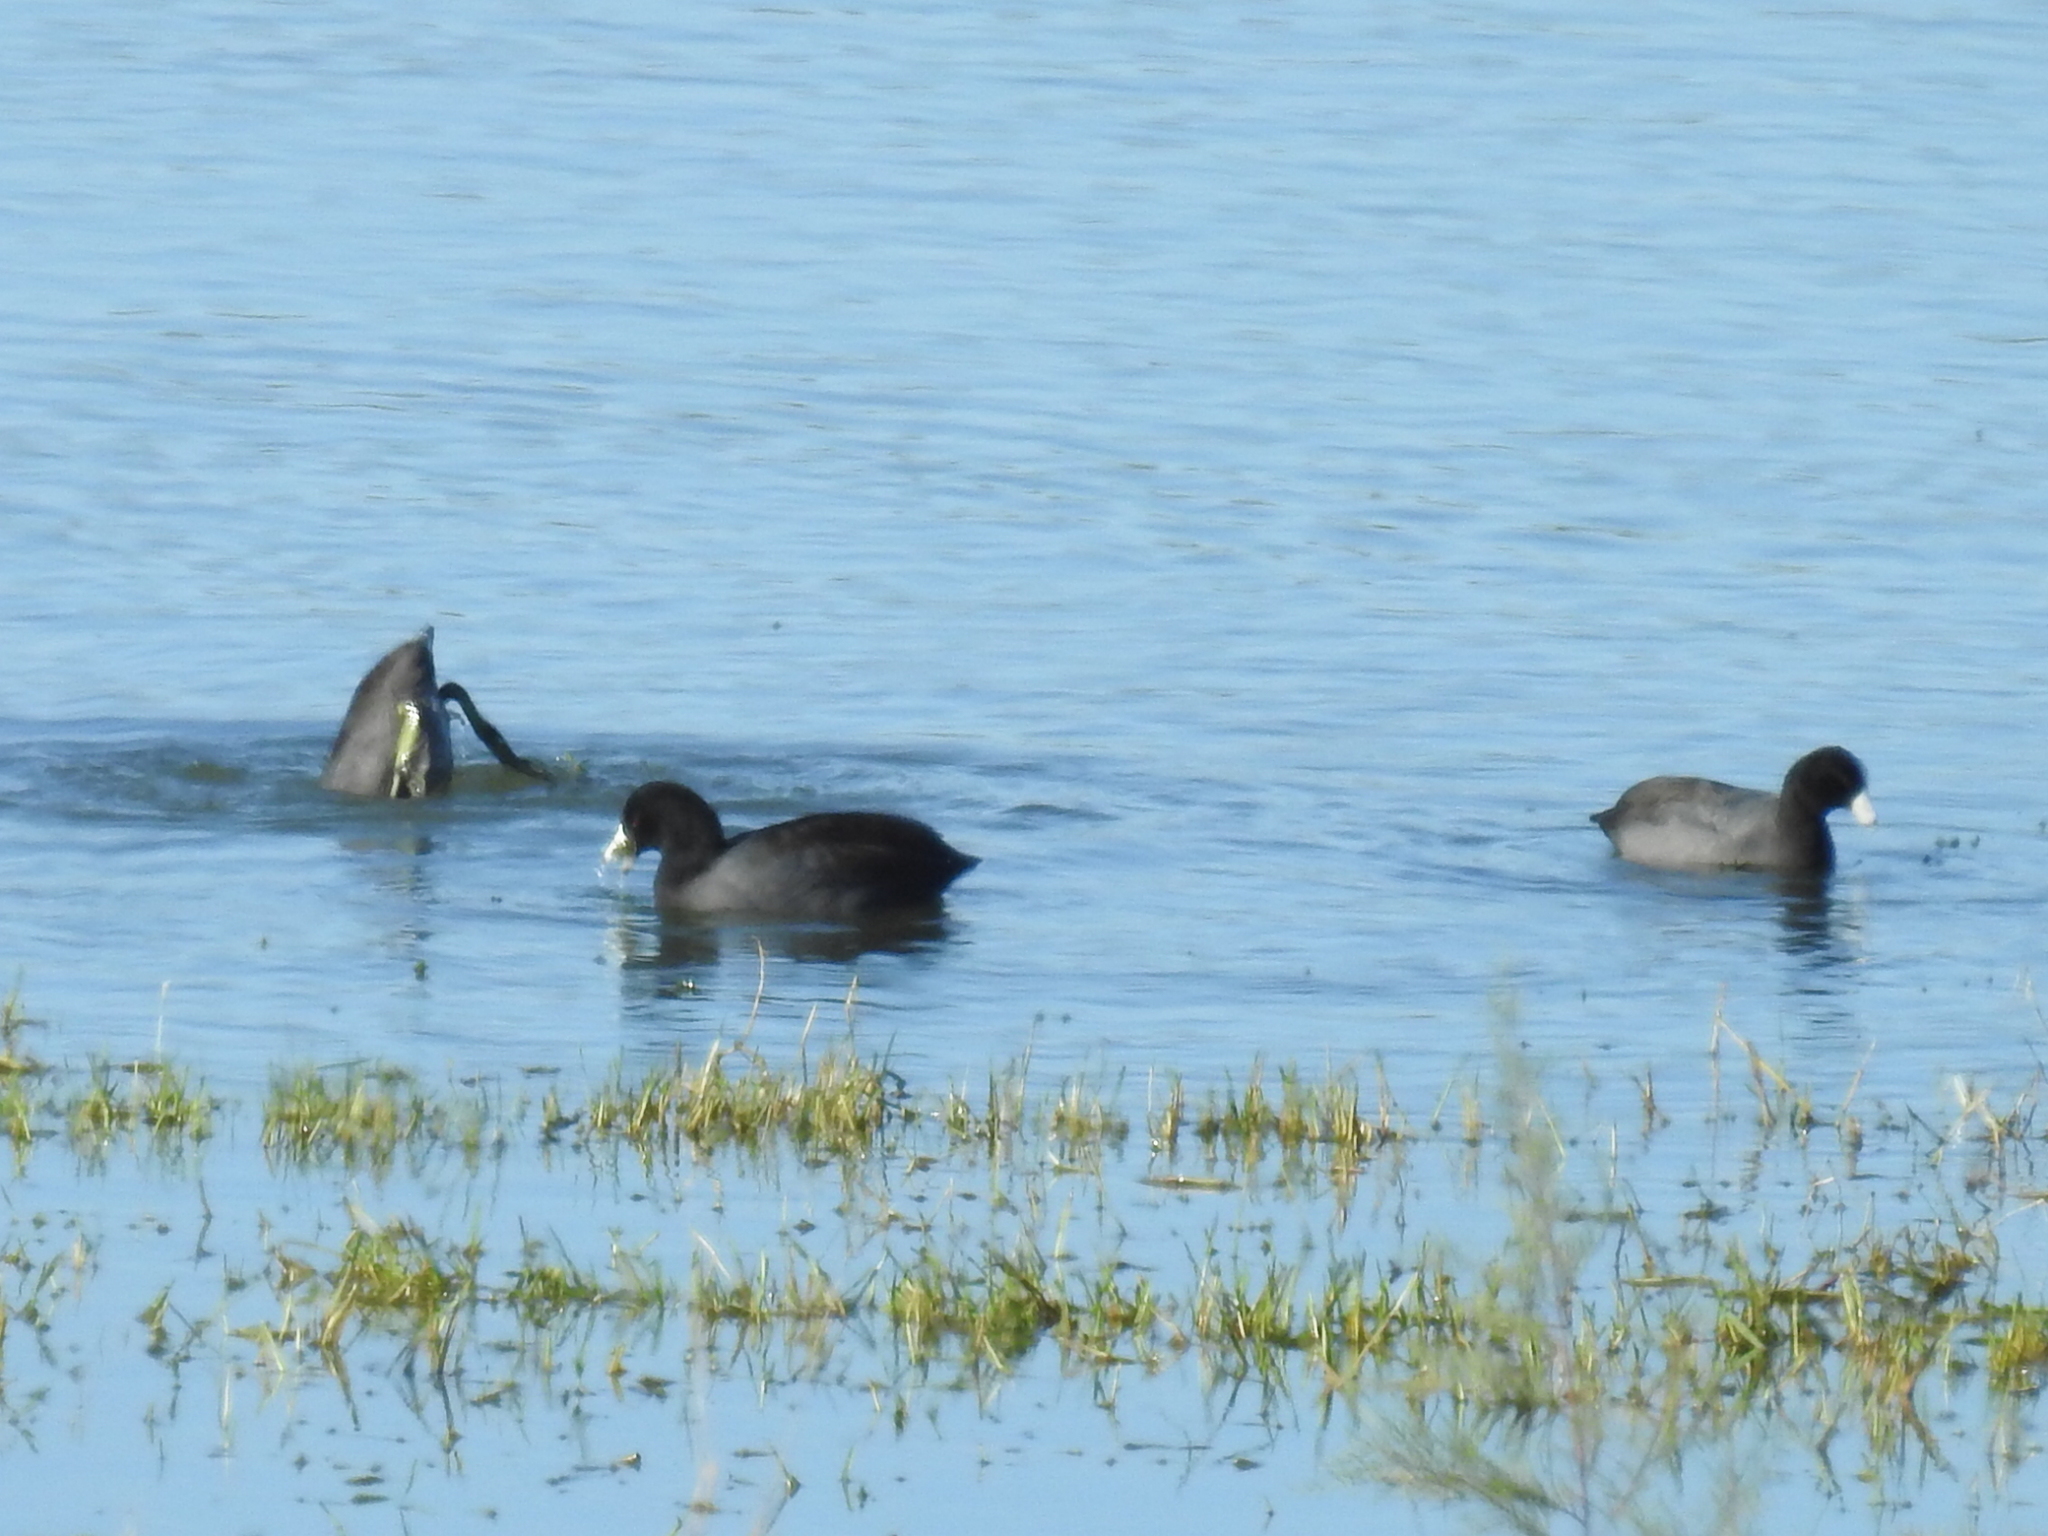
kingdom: Animalia
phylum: Chordata
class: Aves
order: Gruiformes
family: Rallidae
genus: Fulica
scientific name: Fulica americana
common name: American coot
